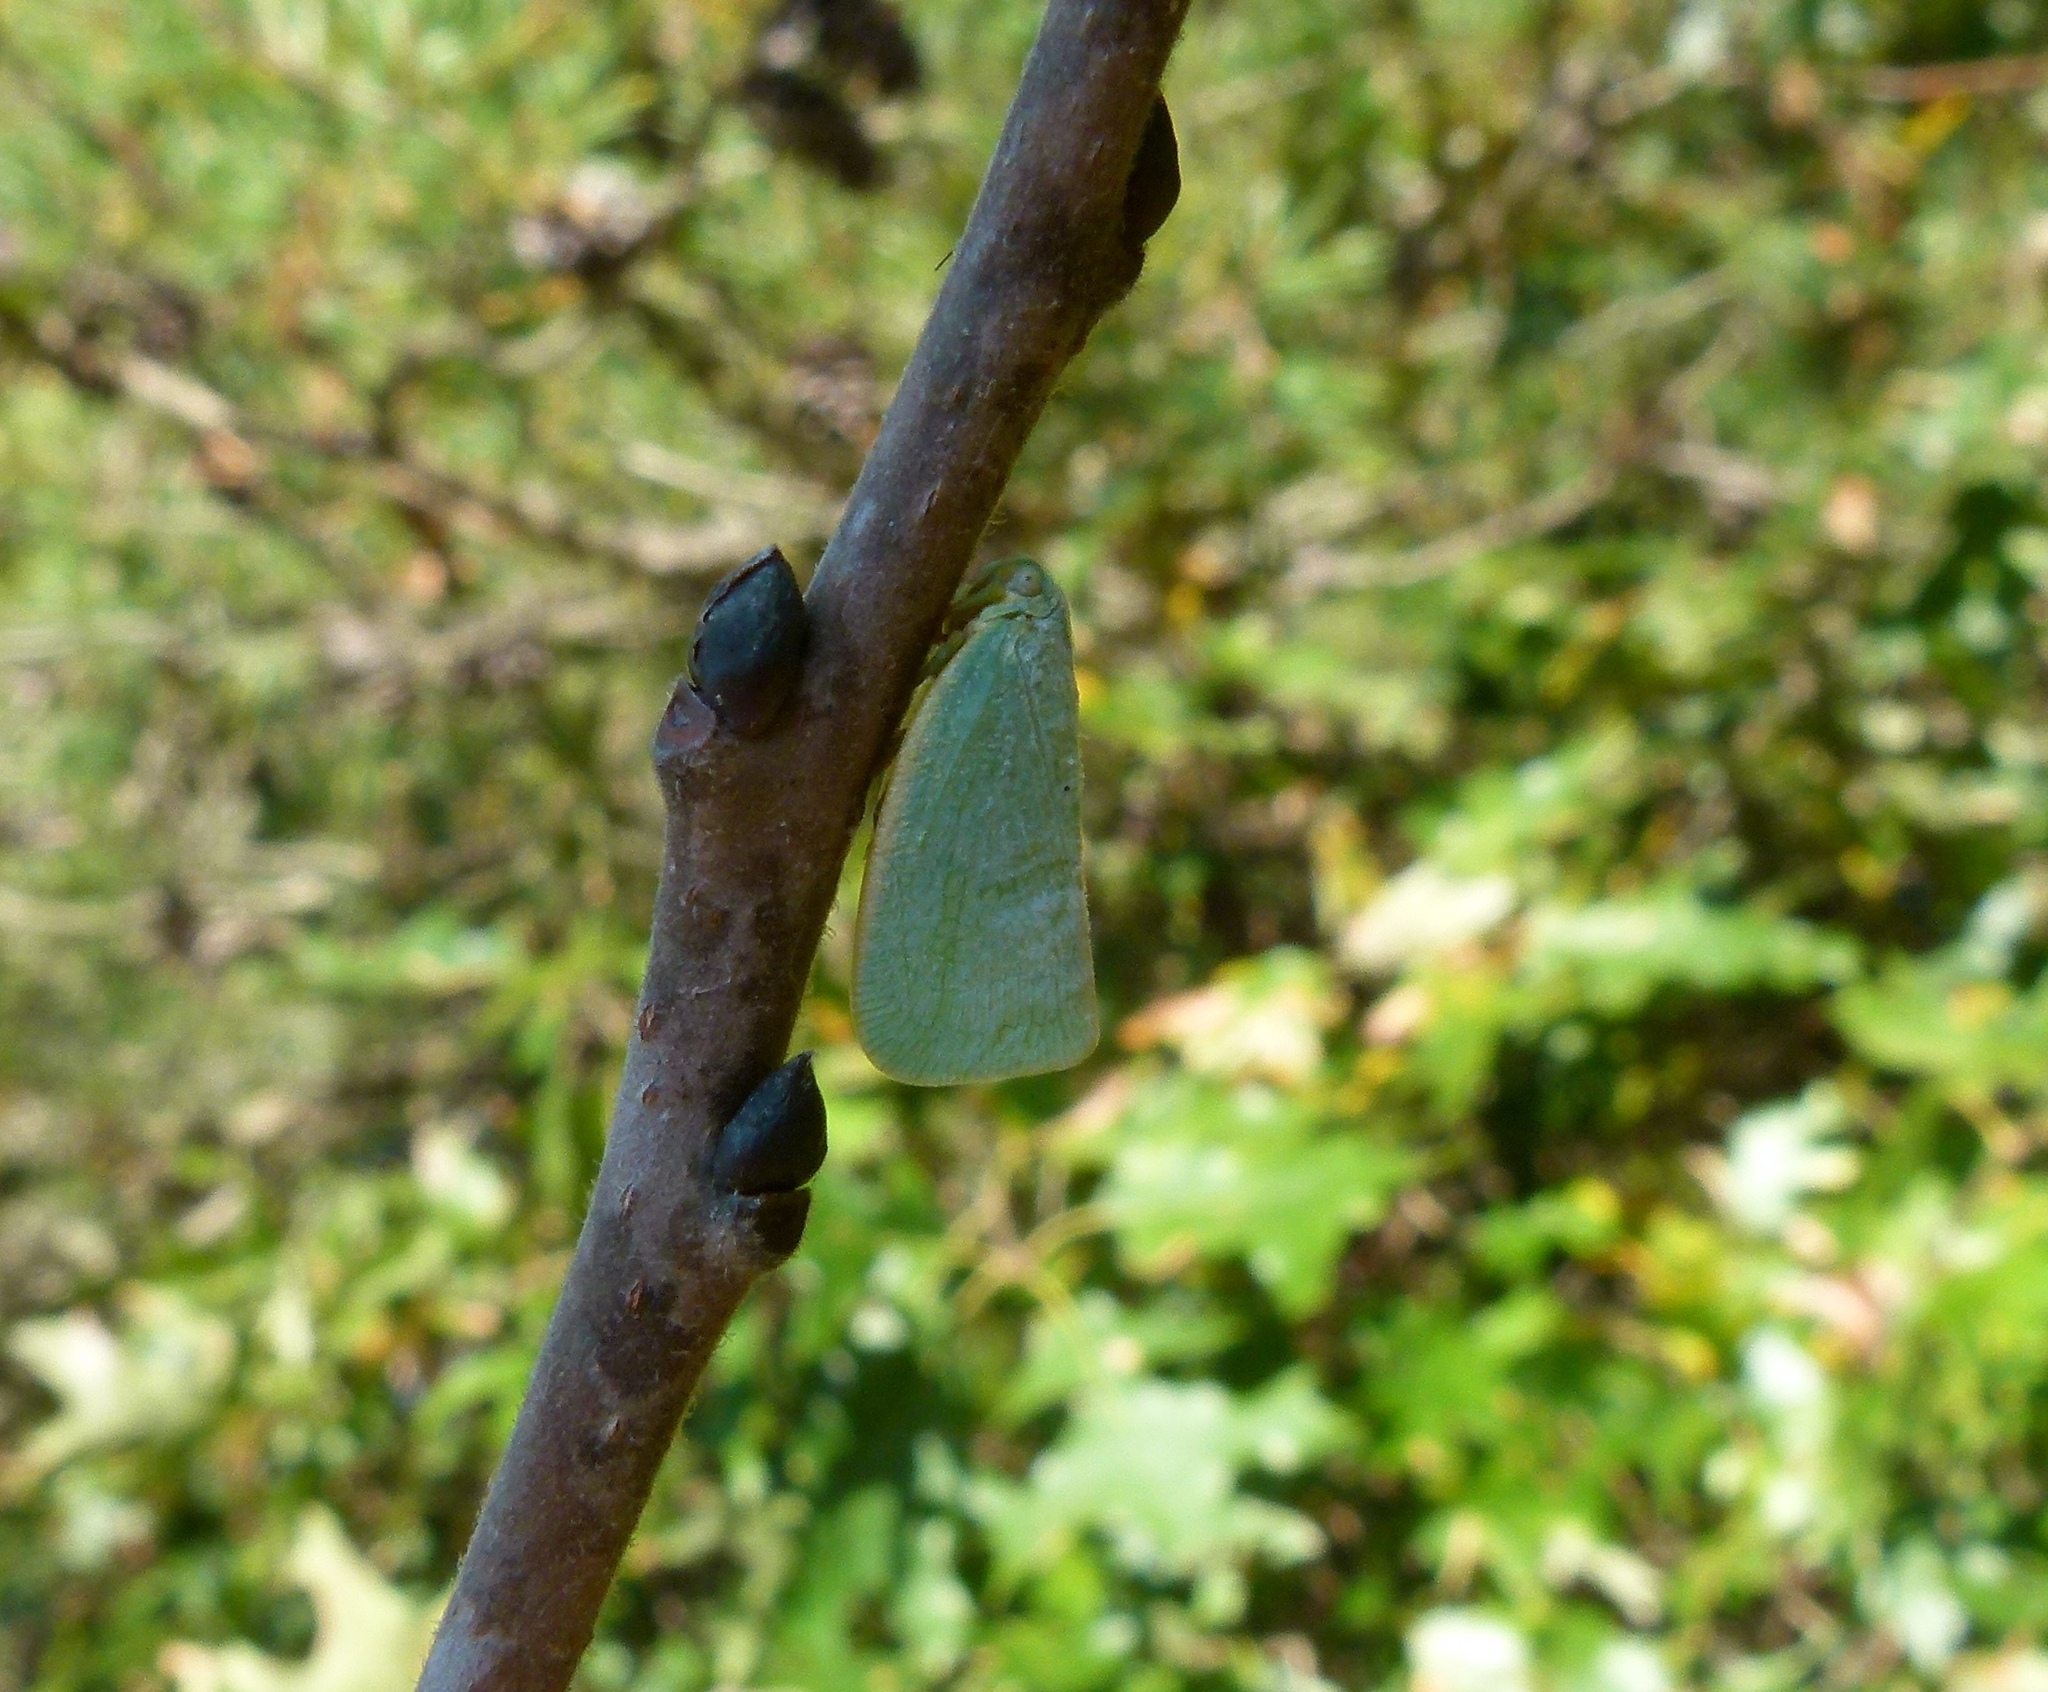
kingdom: Animalia
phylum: Arthropoda
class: Insecta
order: Hemiptera
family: Flatidae
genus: Flatormenis
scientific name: Flatormenis proxima
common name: Northern flatid planthopper
